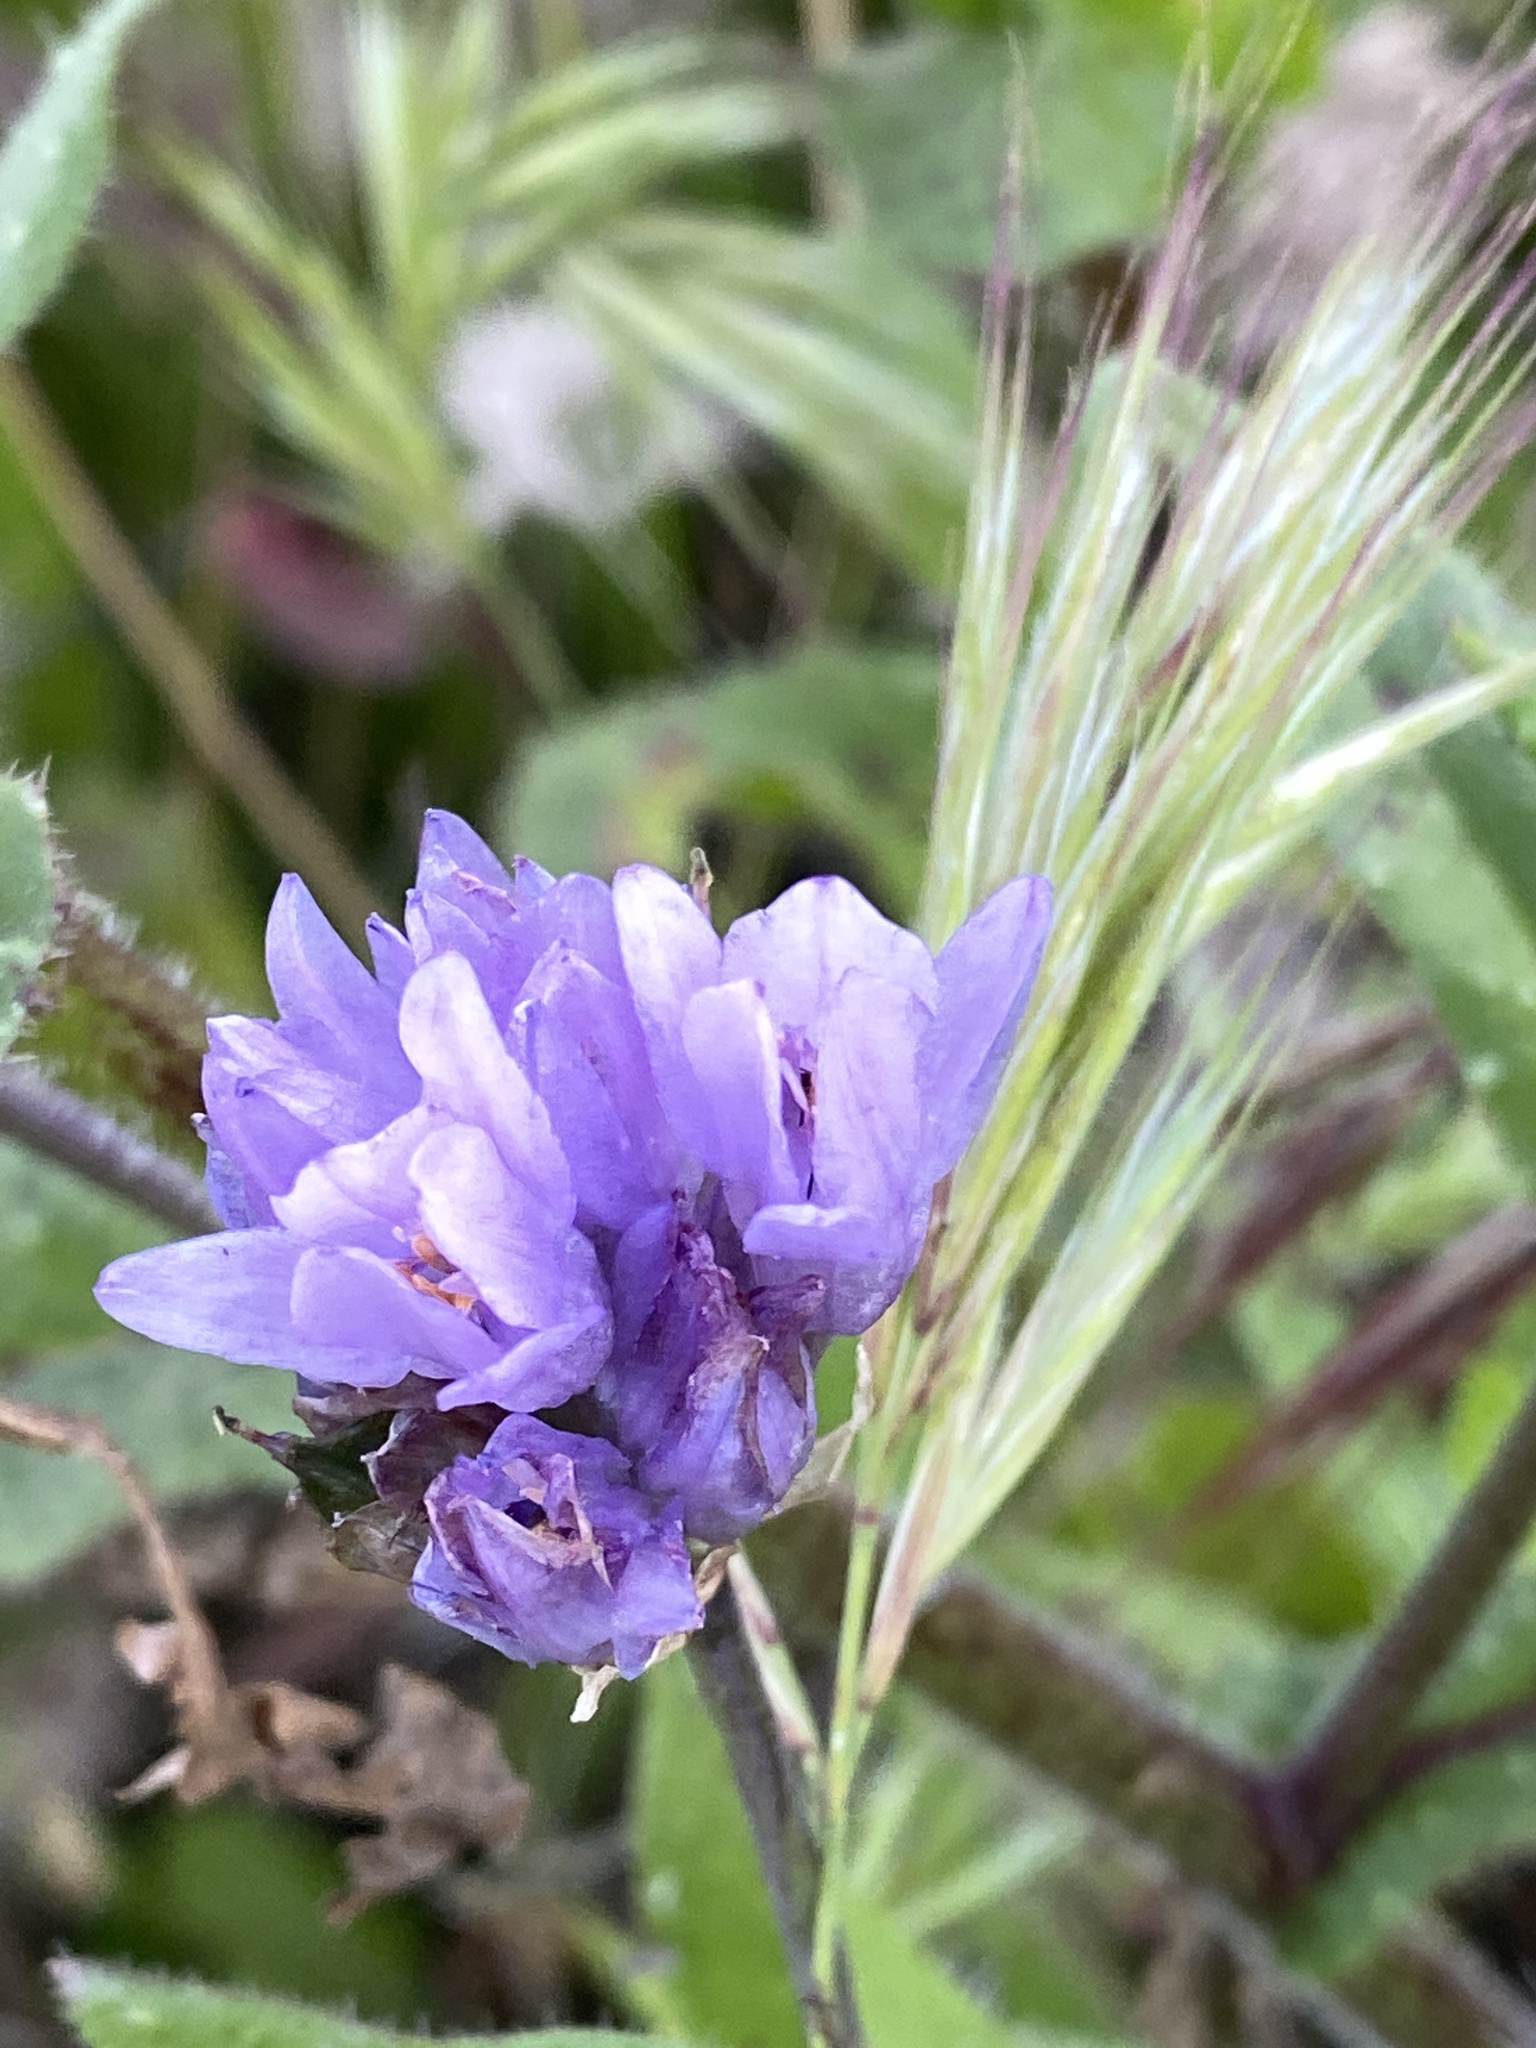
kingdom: Plantae
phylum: Tracheophyta
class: Liliopsida
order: Asparagales
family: Asparagaceae
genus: Dipterostemon
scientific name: Dipterostemon capitatus
